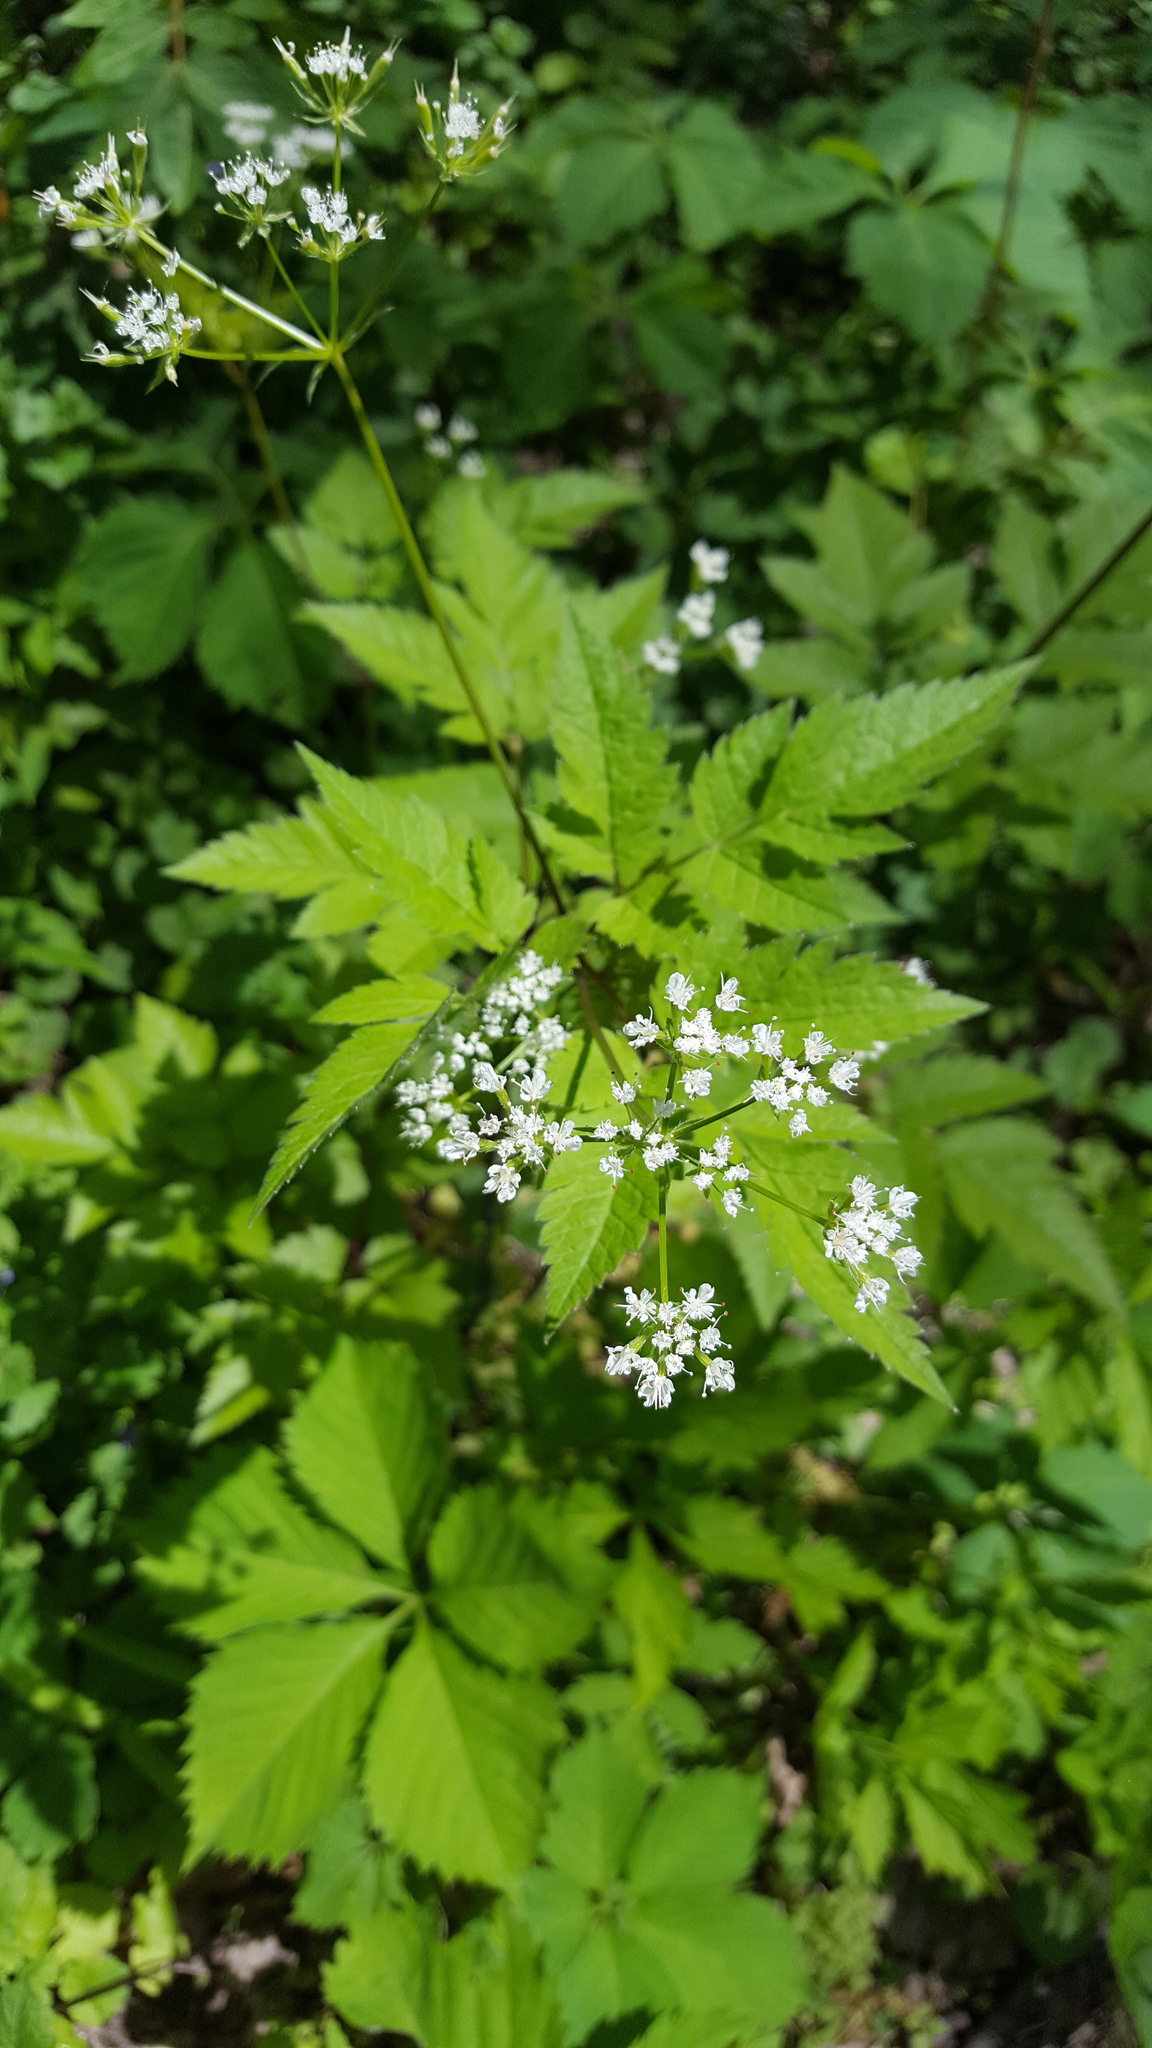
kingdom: Plantae
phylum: Tracheophyta
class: Magnoliopsida
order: Apiales
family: Apiaceae
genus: Osmorhiza
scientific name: Osmorhiza longistylis
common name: Smooth sweet cicely
